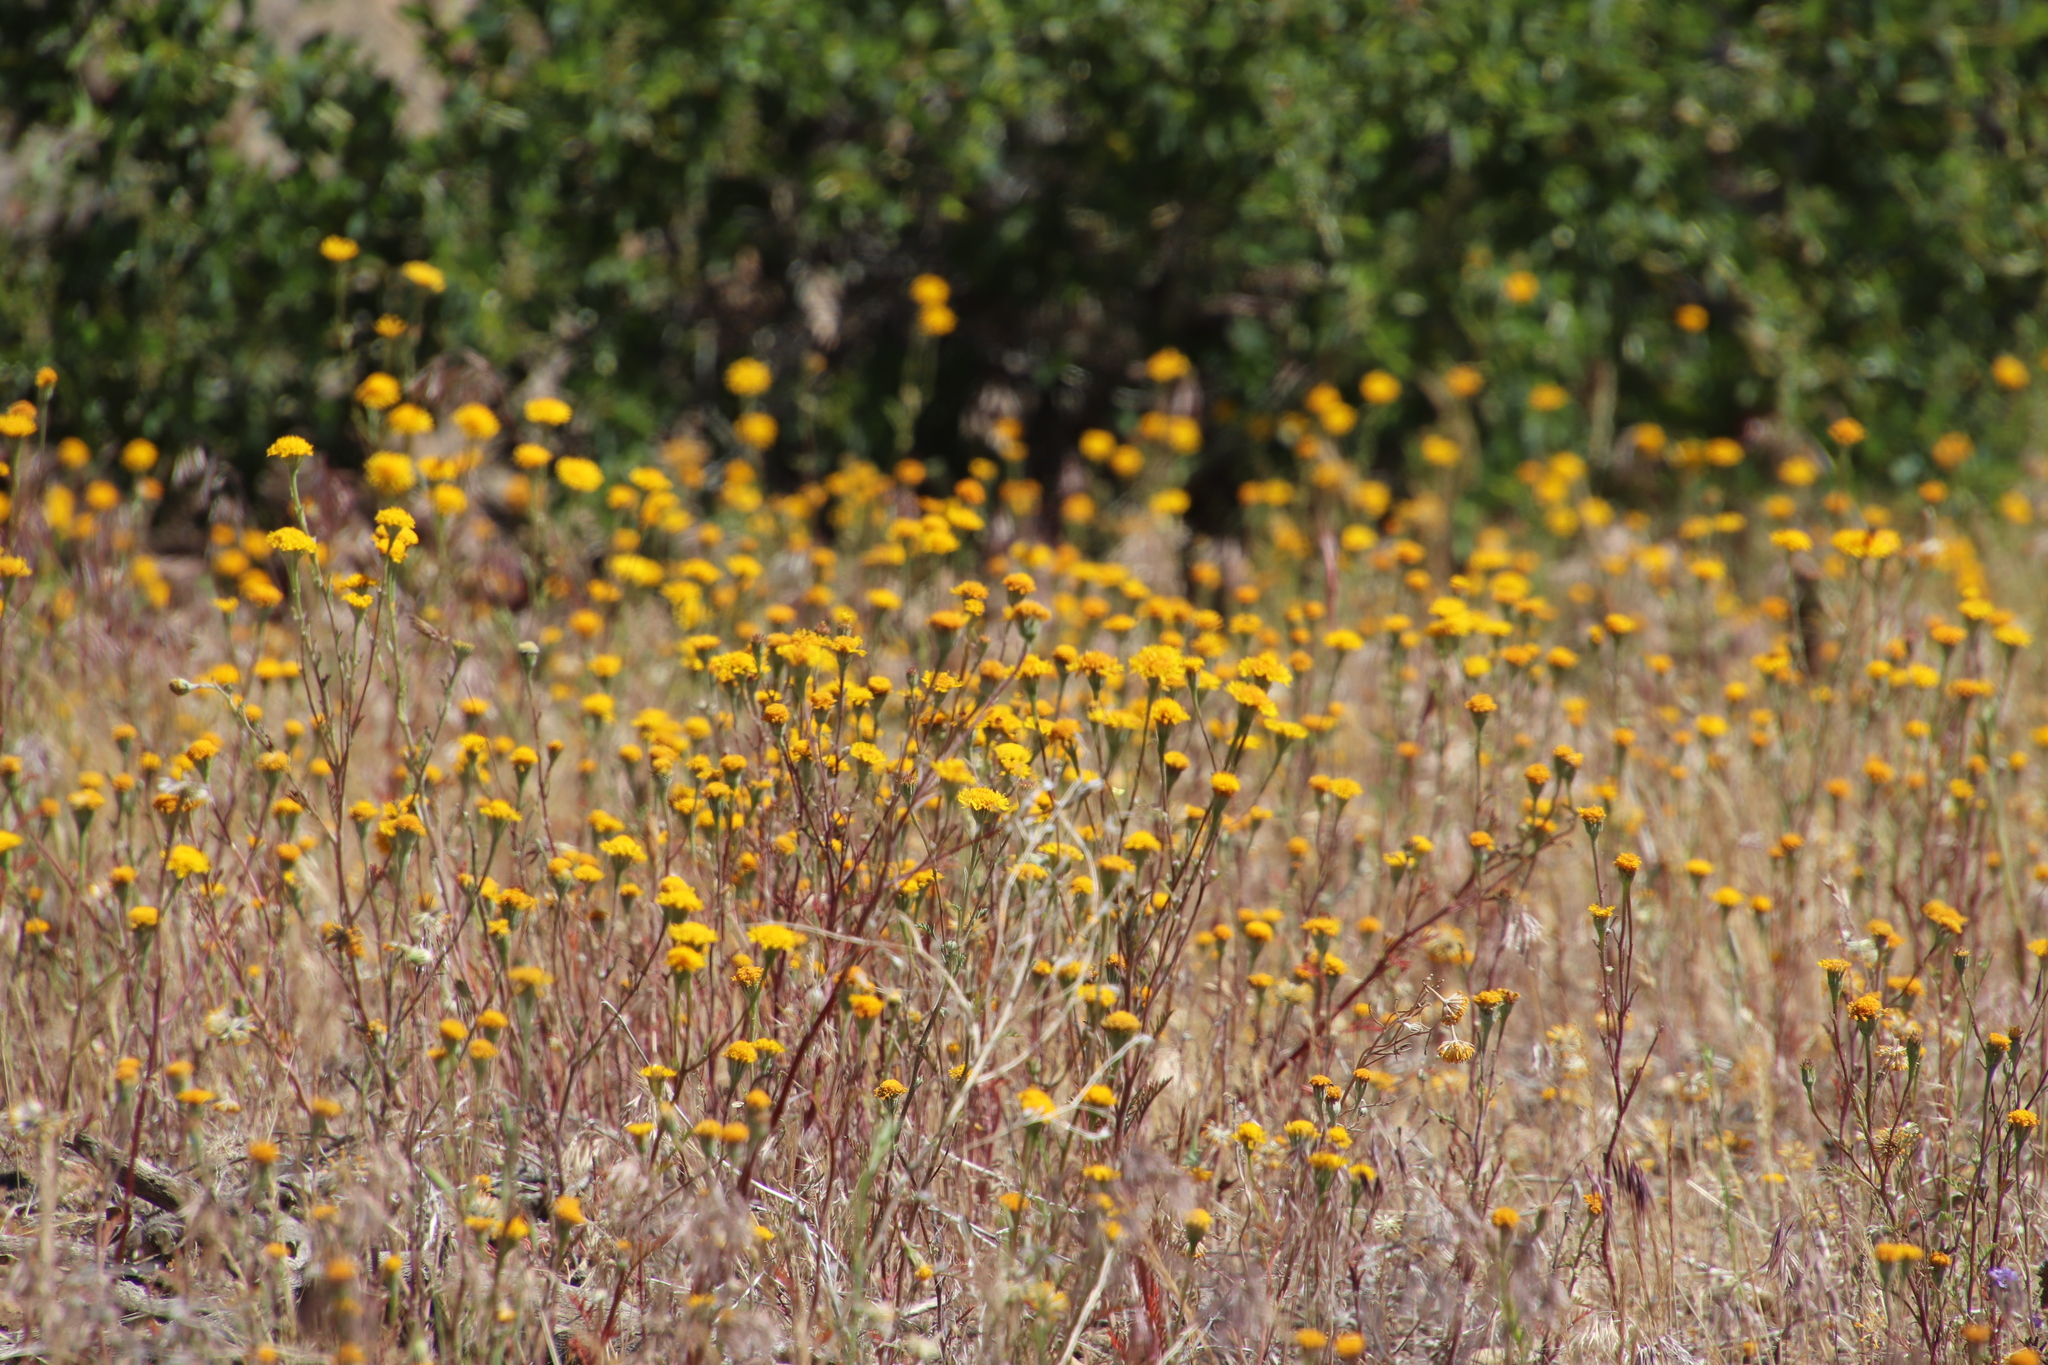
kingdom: Plantae
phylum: Tracheophyta
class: Magnoliopsida
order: Asterales
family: Asteraceae
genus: Chaenactis
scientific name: Chaenactis glabriuscula
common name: Yellow pincushion
